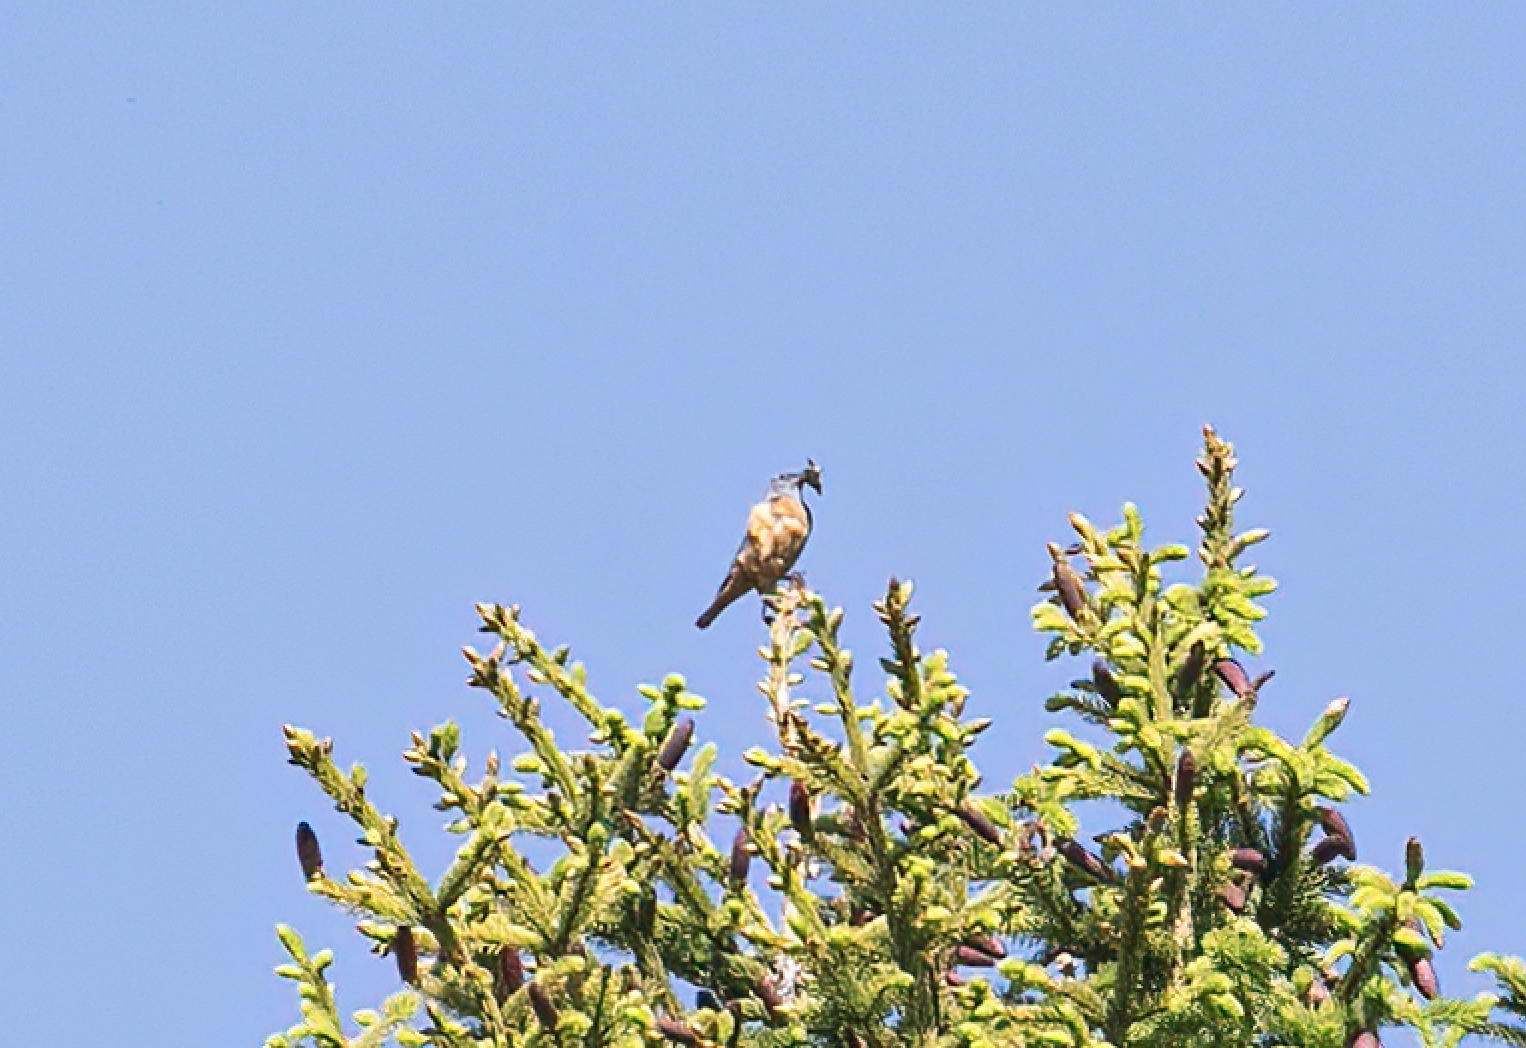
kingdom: Animalia
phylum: Chordata
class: Aves
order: Passeriformes
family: Muscicapidae
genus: Monticola
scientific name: Monticola saxatilis
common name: Rufous-tailed rock thrush
